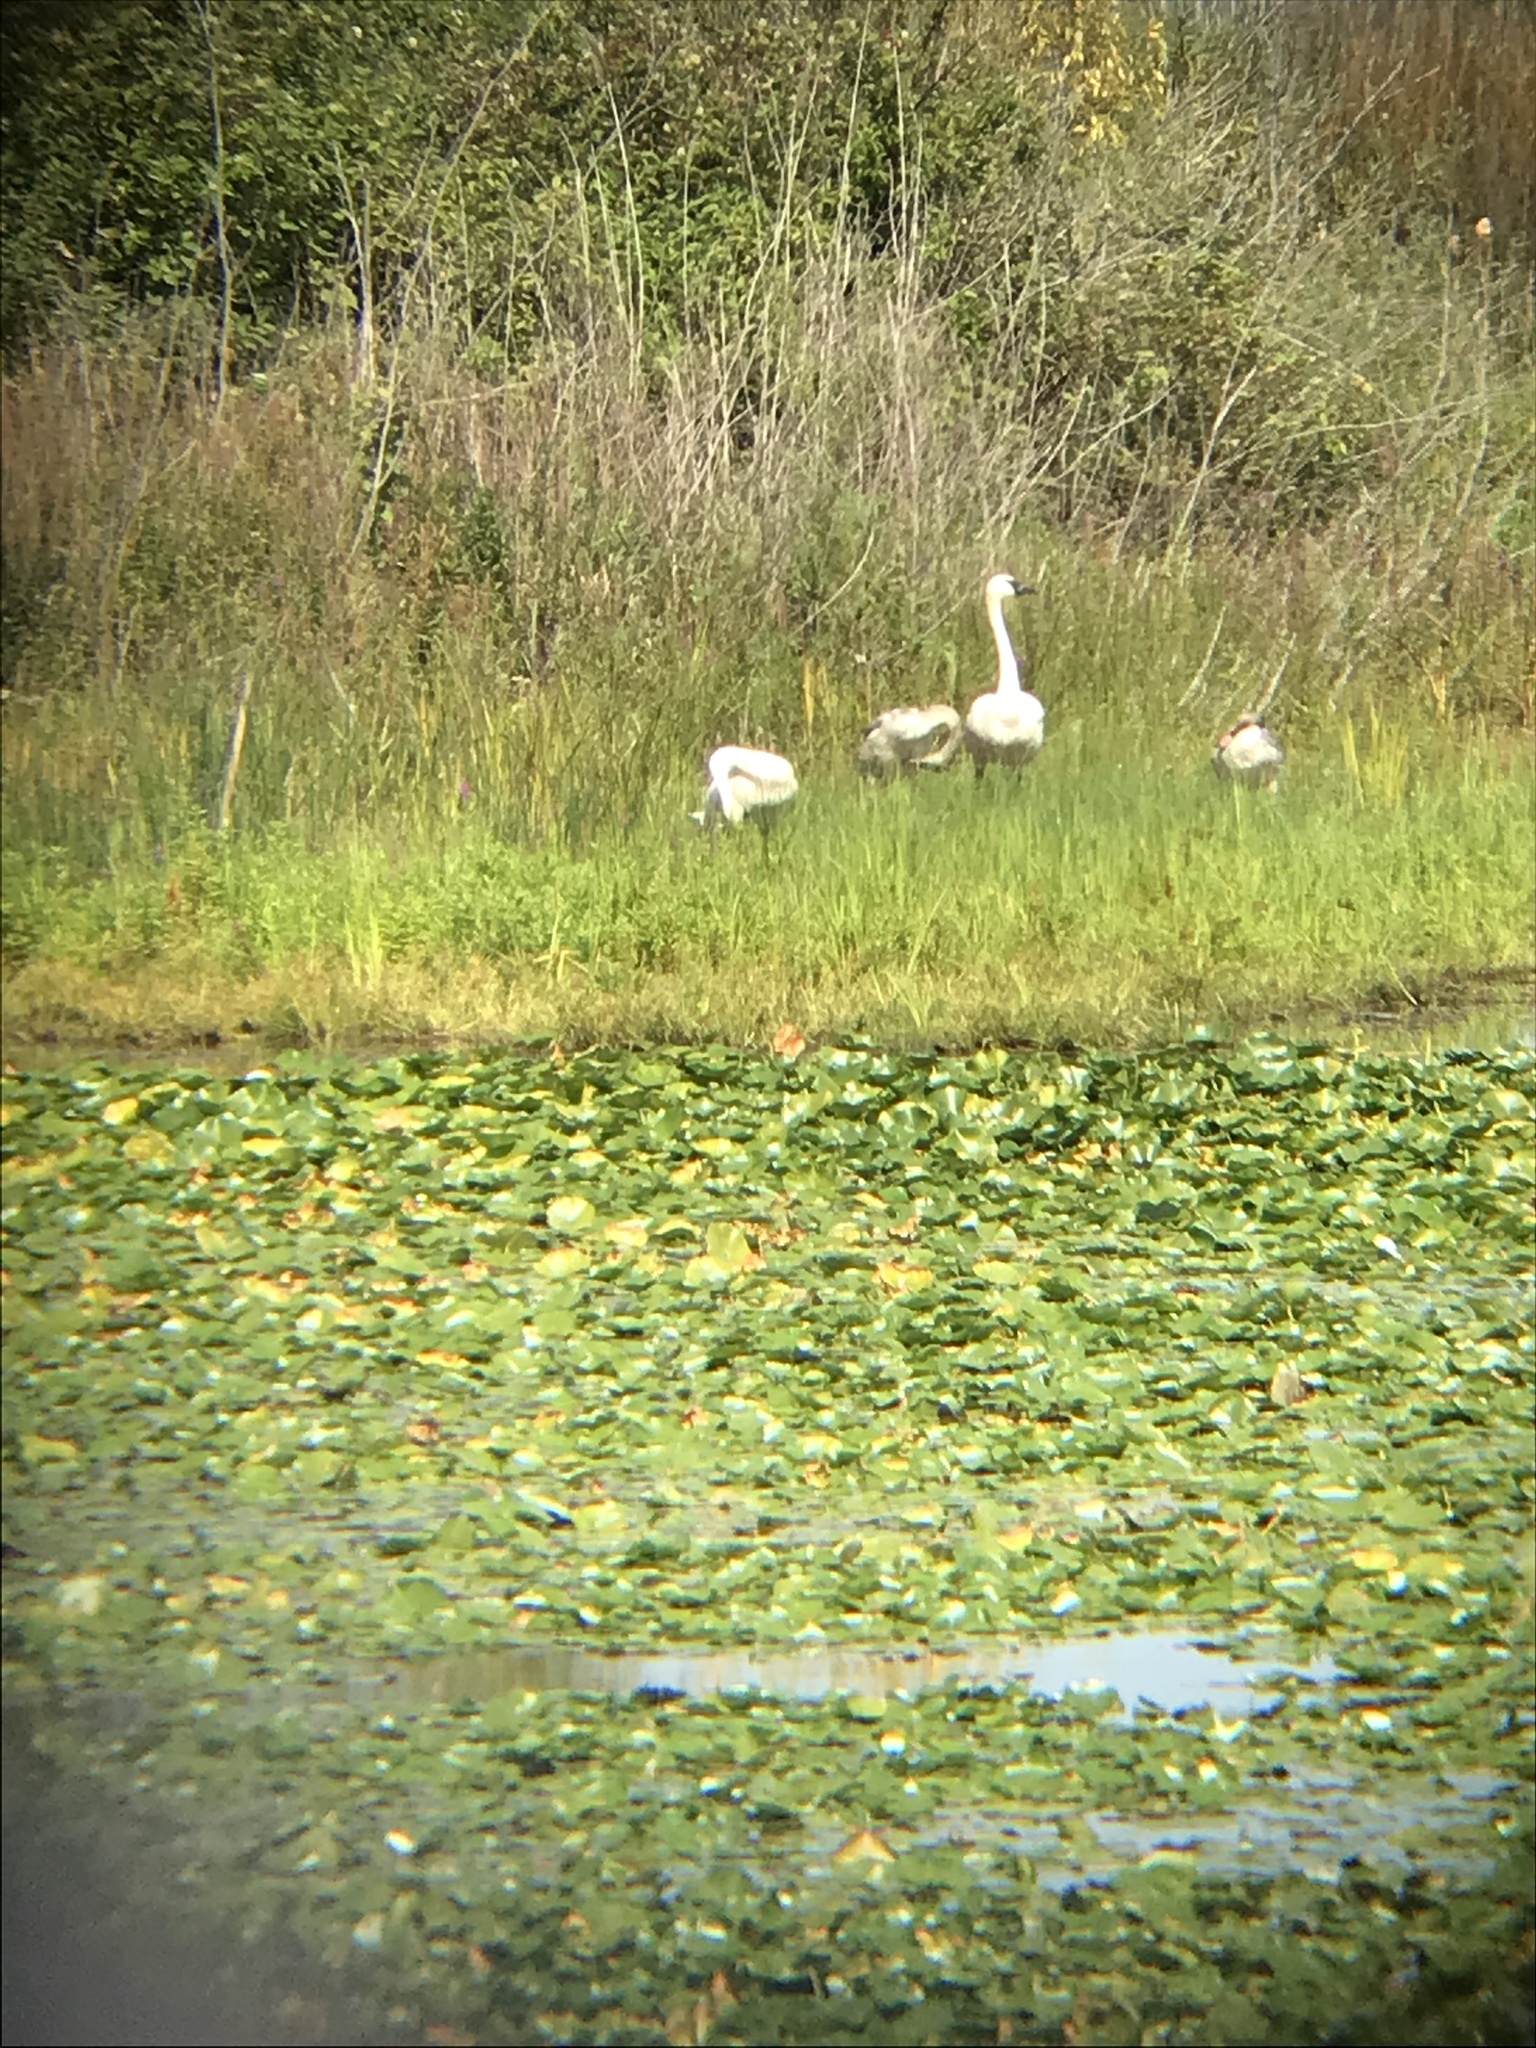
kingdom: Animalia
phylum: Chordata
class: Aves
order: Anseriformes
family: Anatidae
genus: Cygnus
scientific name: Cygnus buccinator
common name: Trumpeter swan
